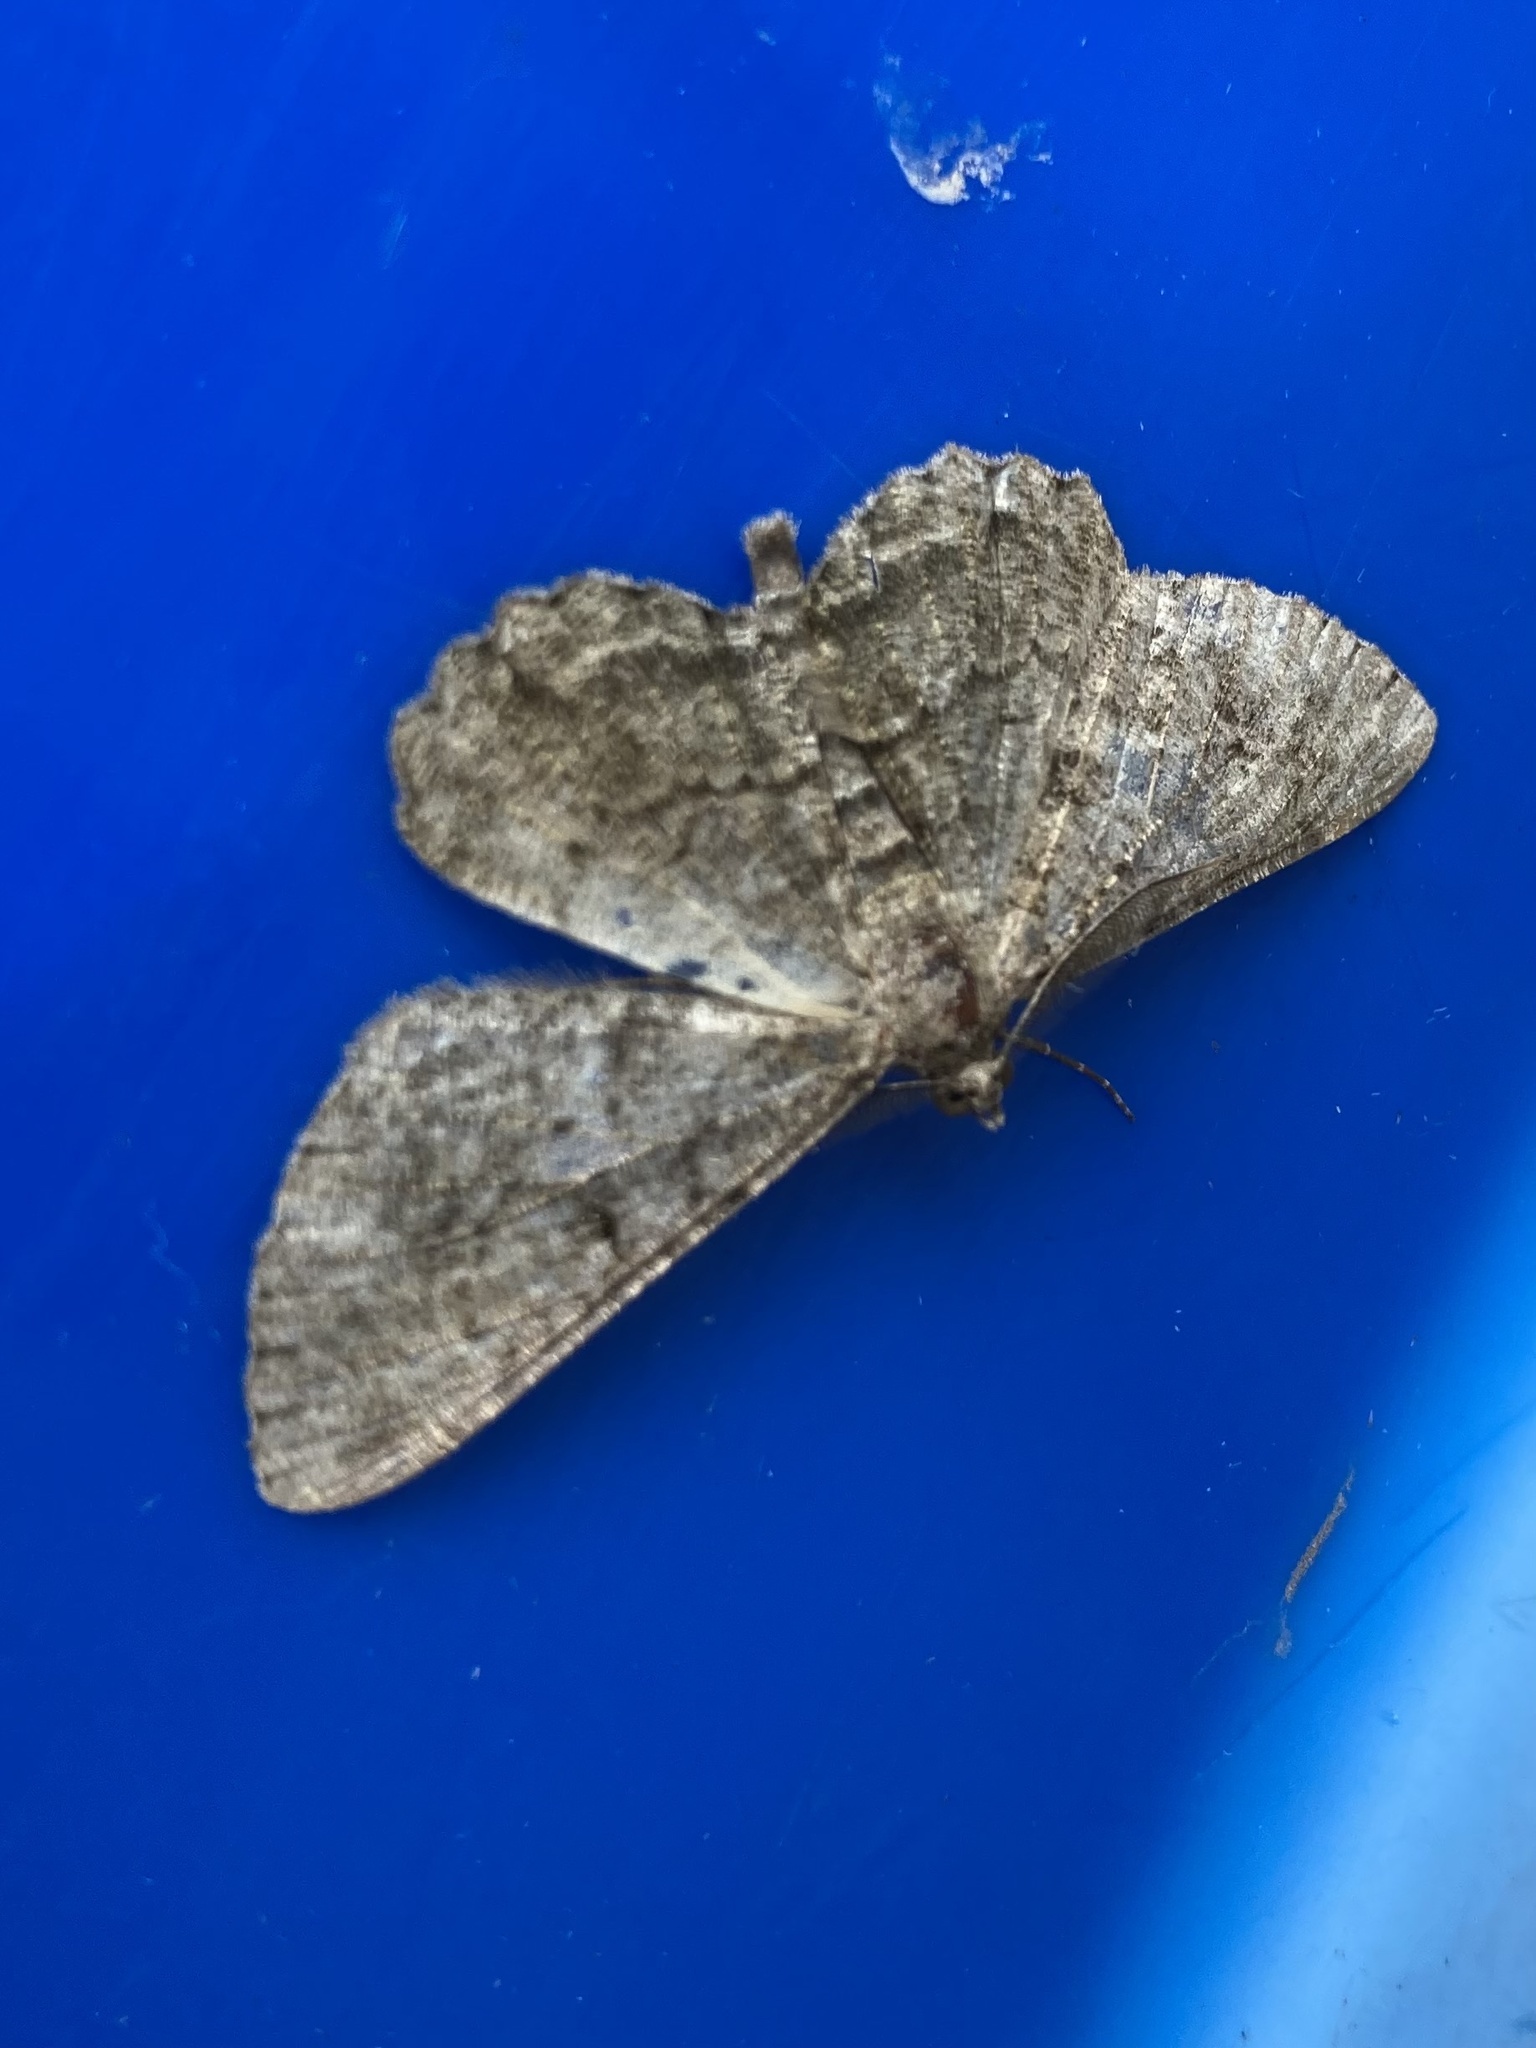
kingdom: Animalia
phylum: Arthropoda
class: Insecta
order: Lepidoptera
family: Geometridae
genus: Peribatodes
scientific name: Peribatodes rhomboidaria
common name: Willow beauty
